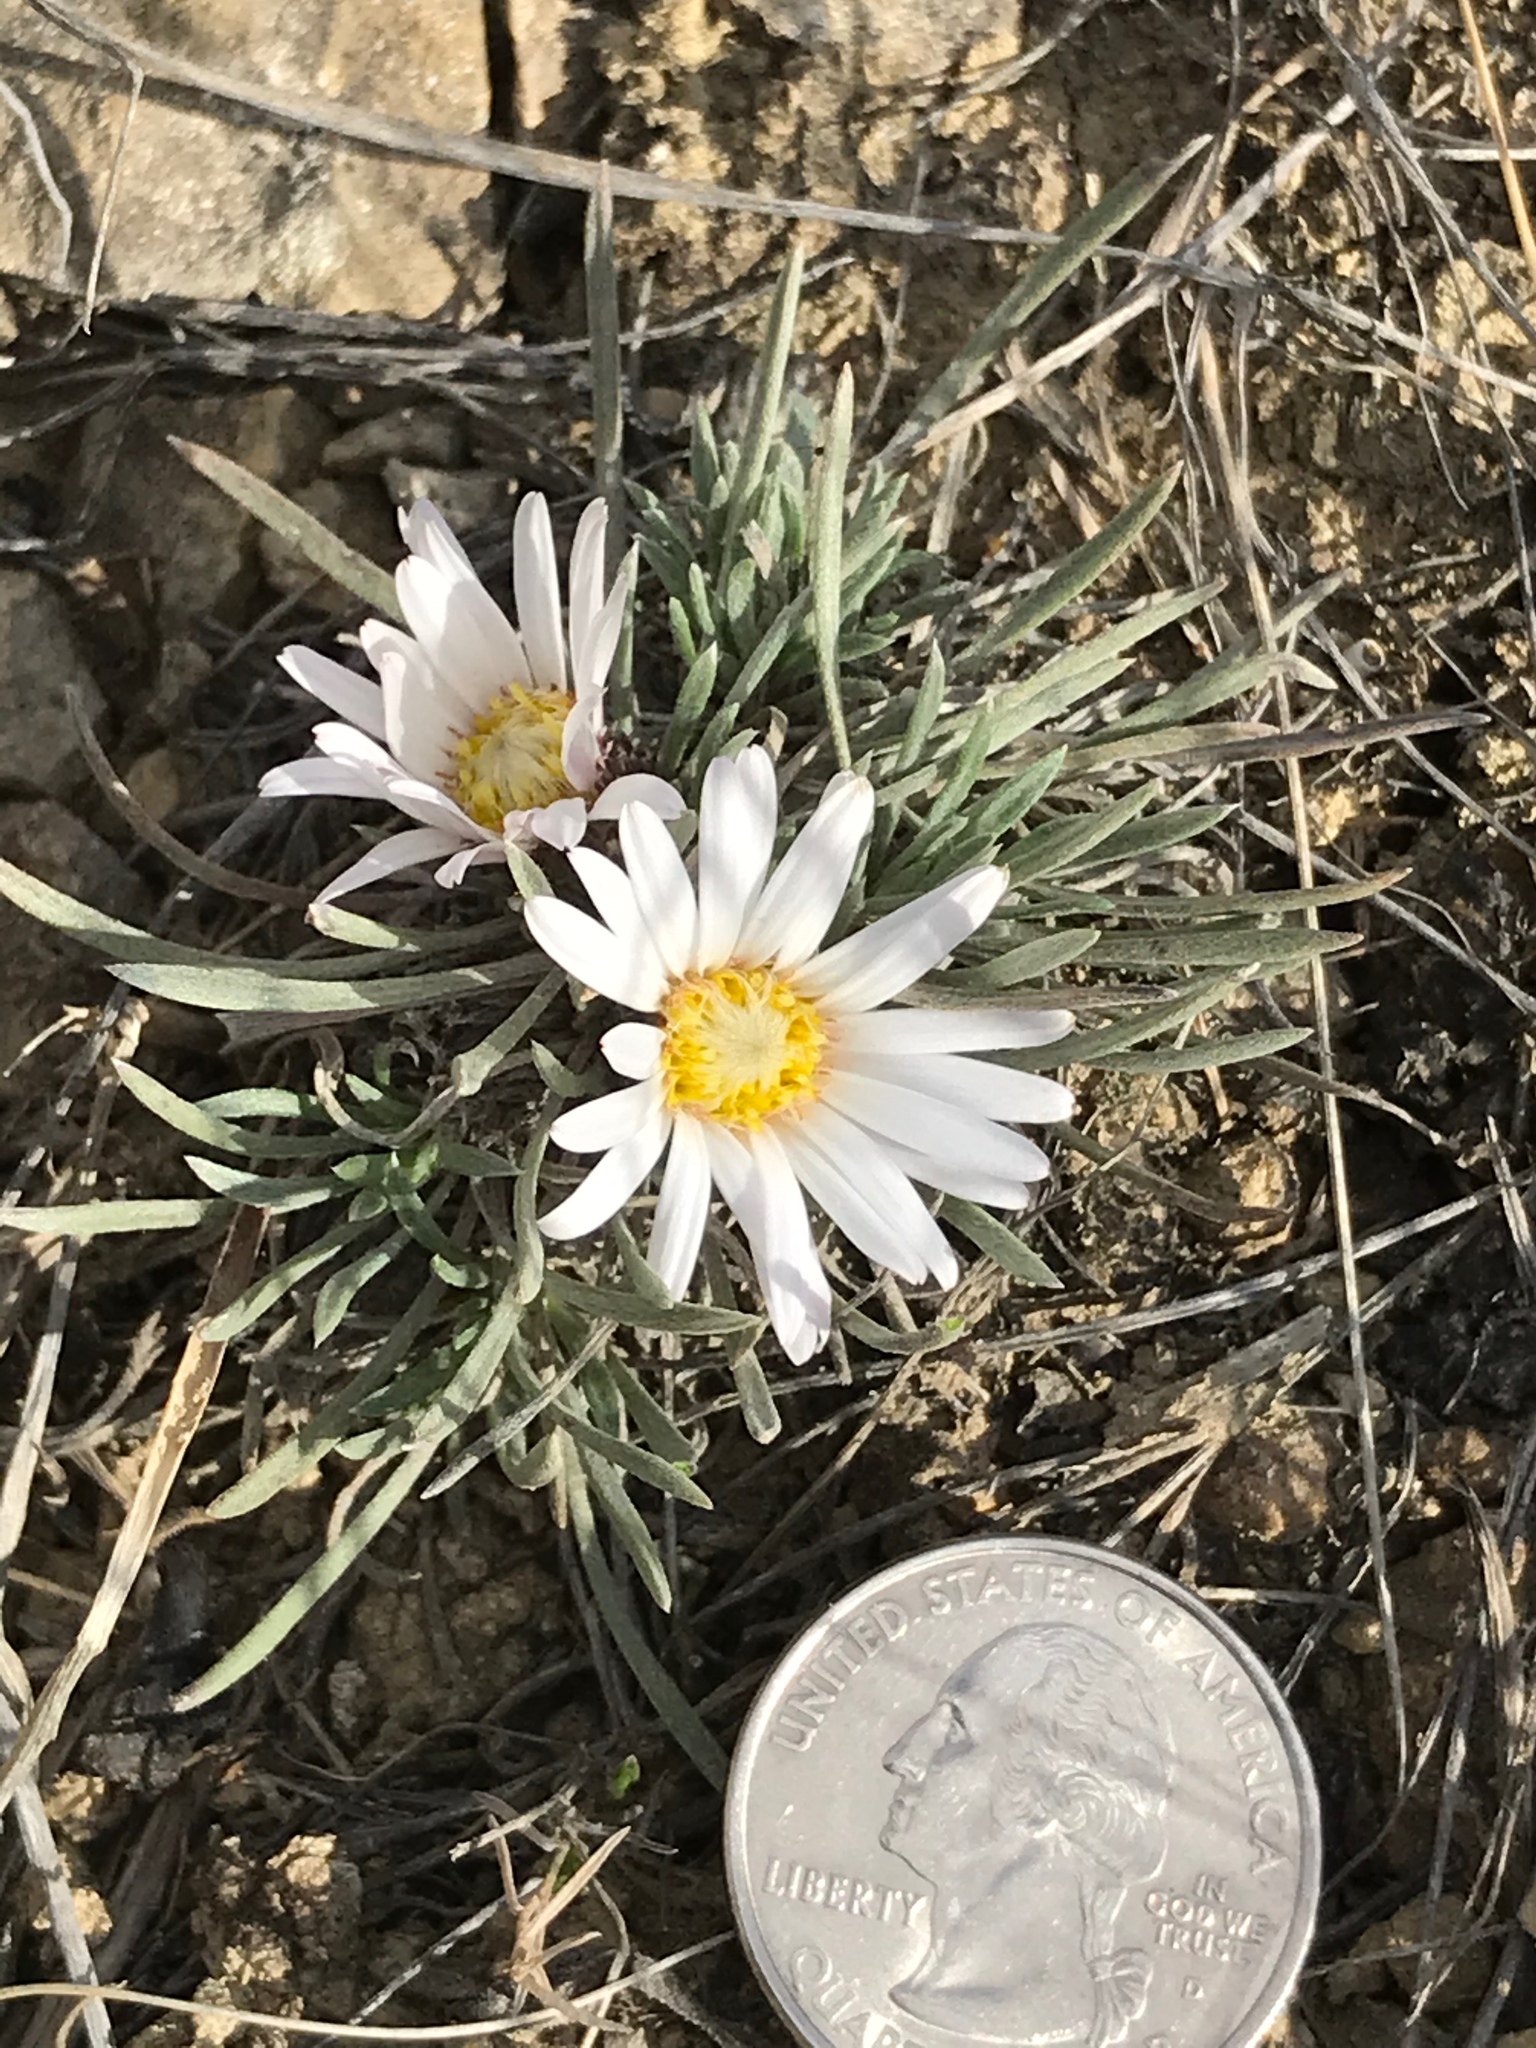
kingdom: Plantae
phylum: Tracheophyta
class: Magnoliopsida
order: Asterales
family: Asteraceae
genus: Townsendia
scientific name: Townsendia hookeri
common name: Hooker's townsend daisy
